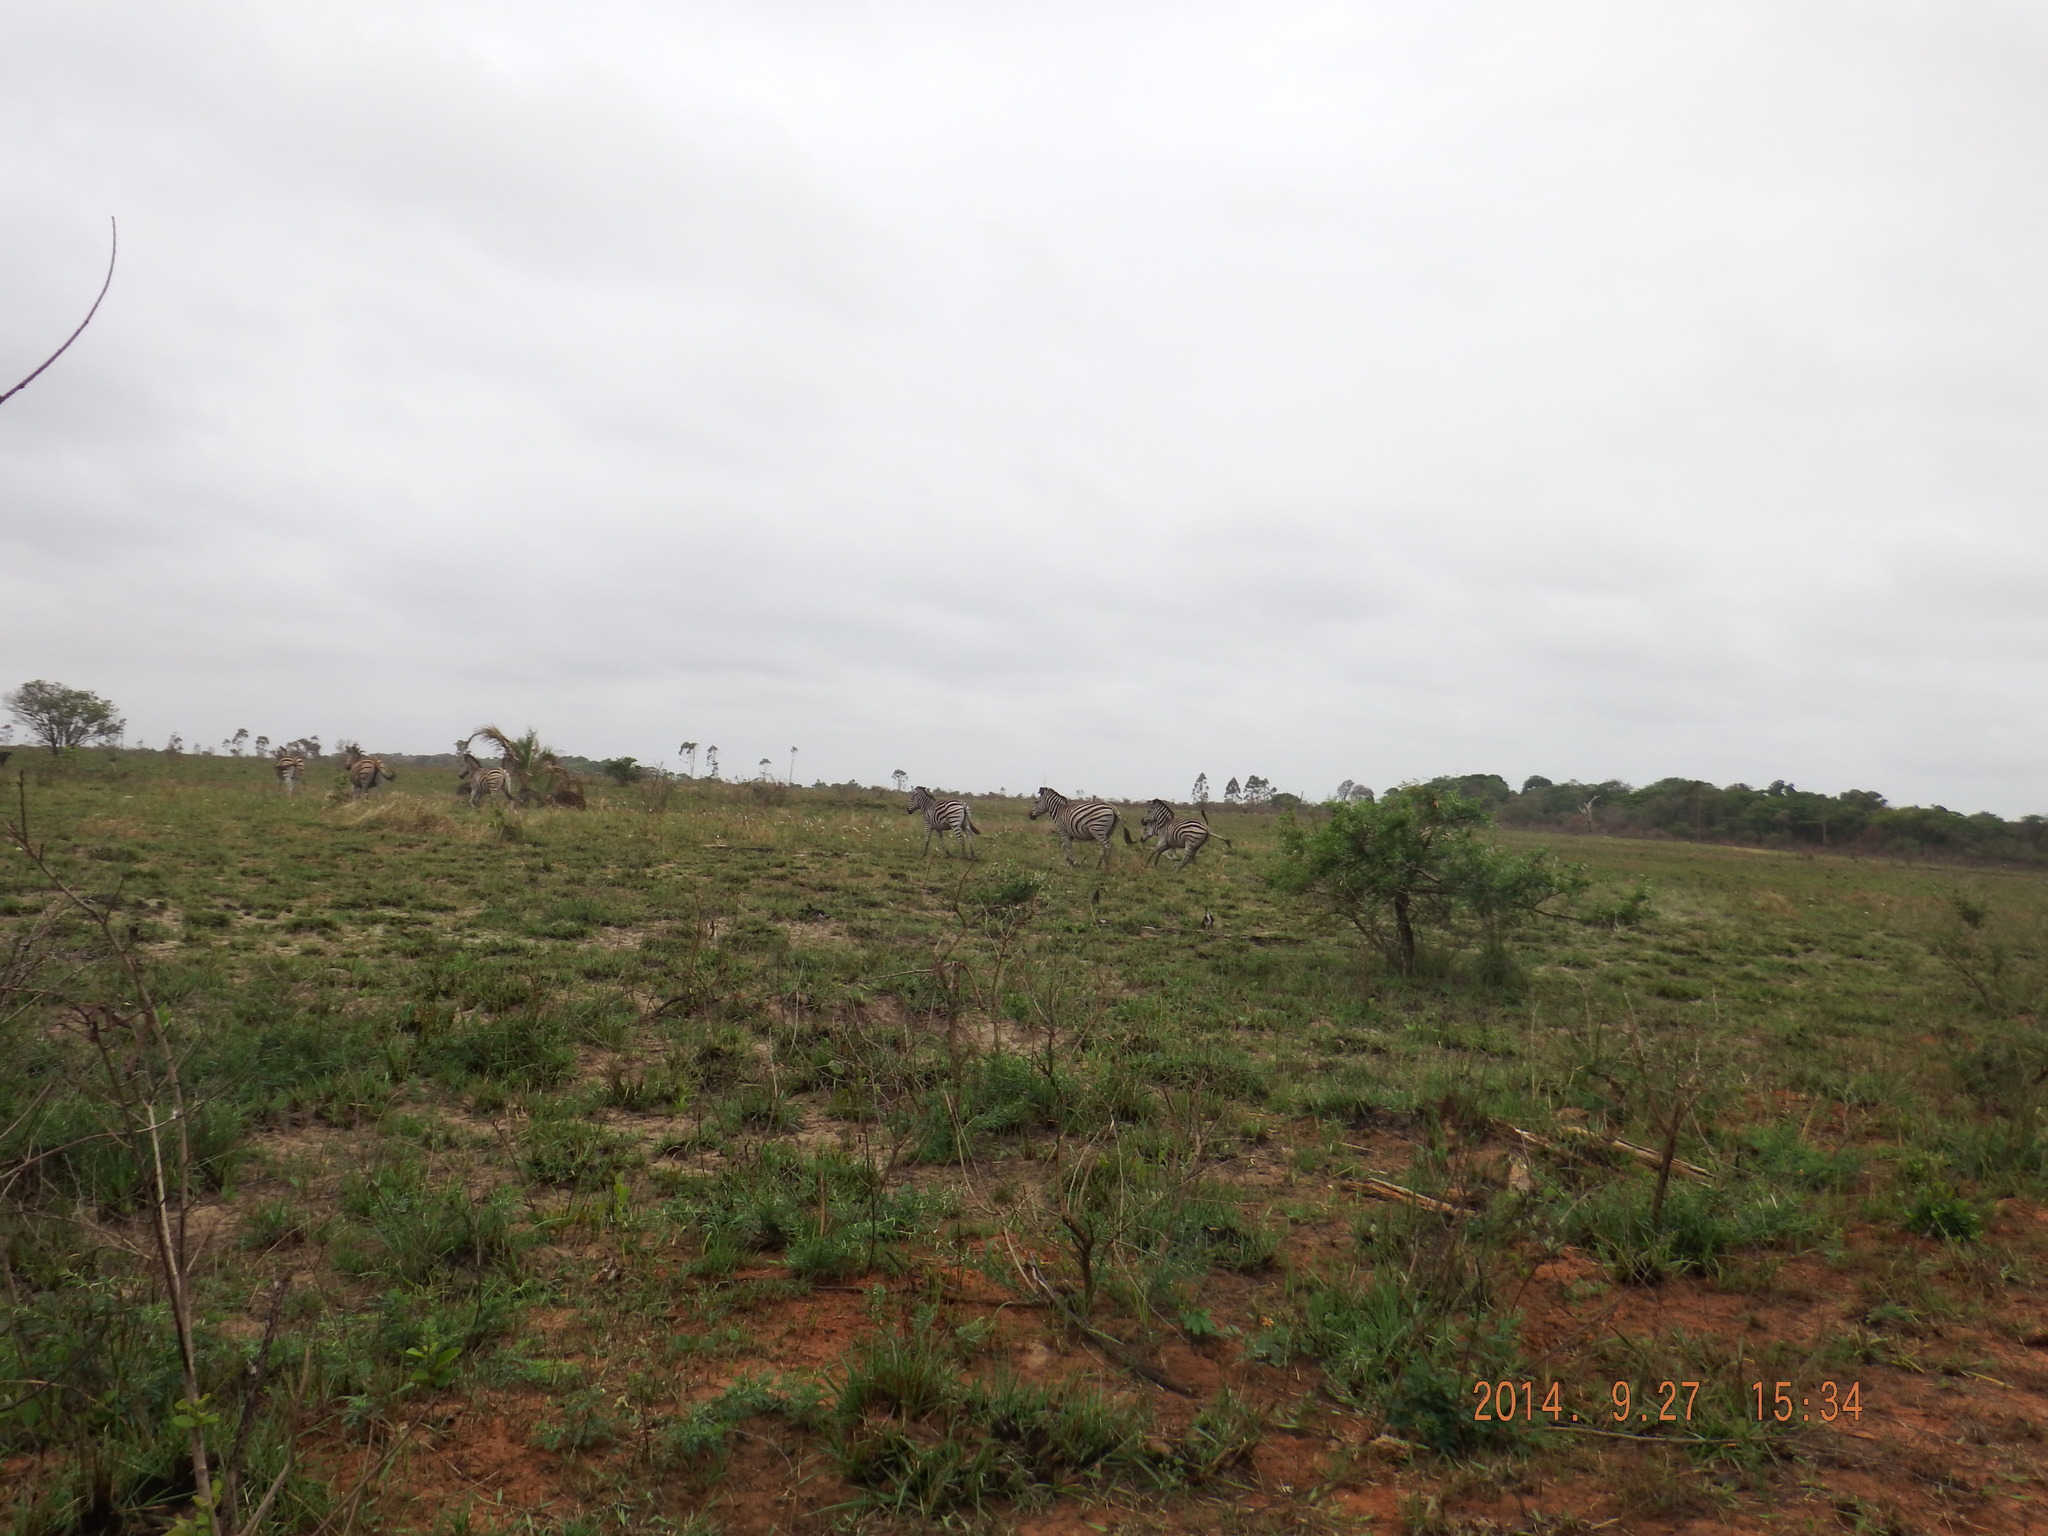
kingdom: Animalia
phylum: Chordata
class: Mammalia
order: Perissodactyla
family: Equidae
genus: Equus
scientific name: Equus quagga
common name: Plains zebra
